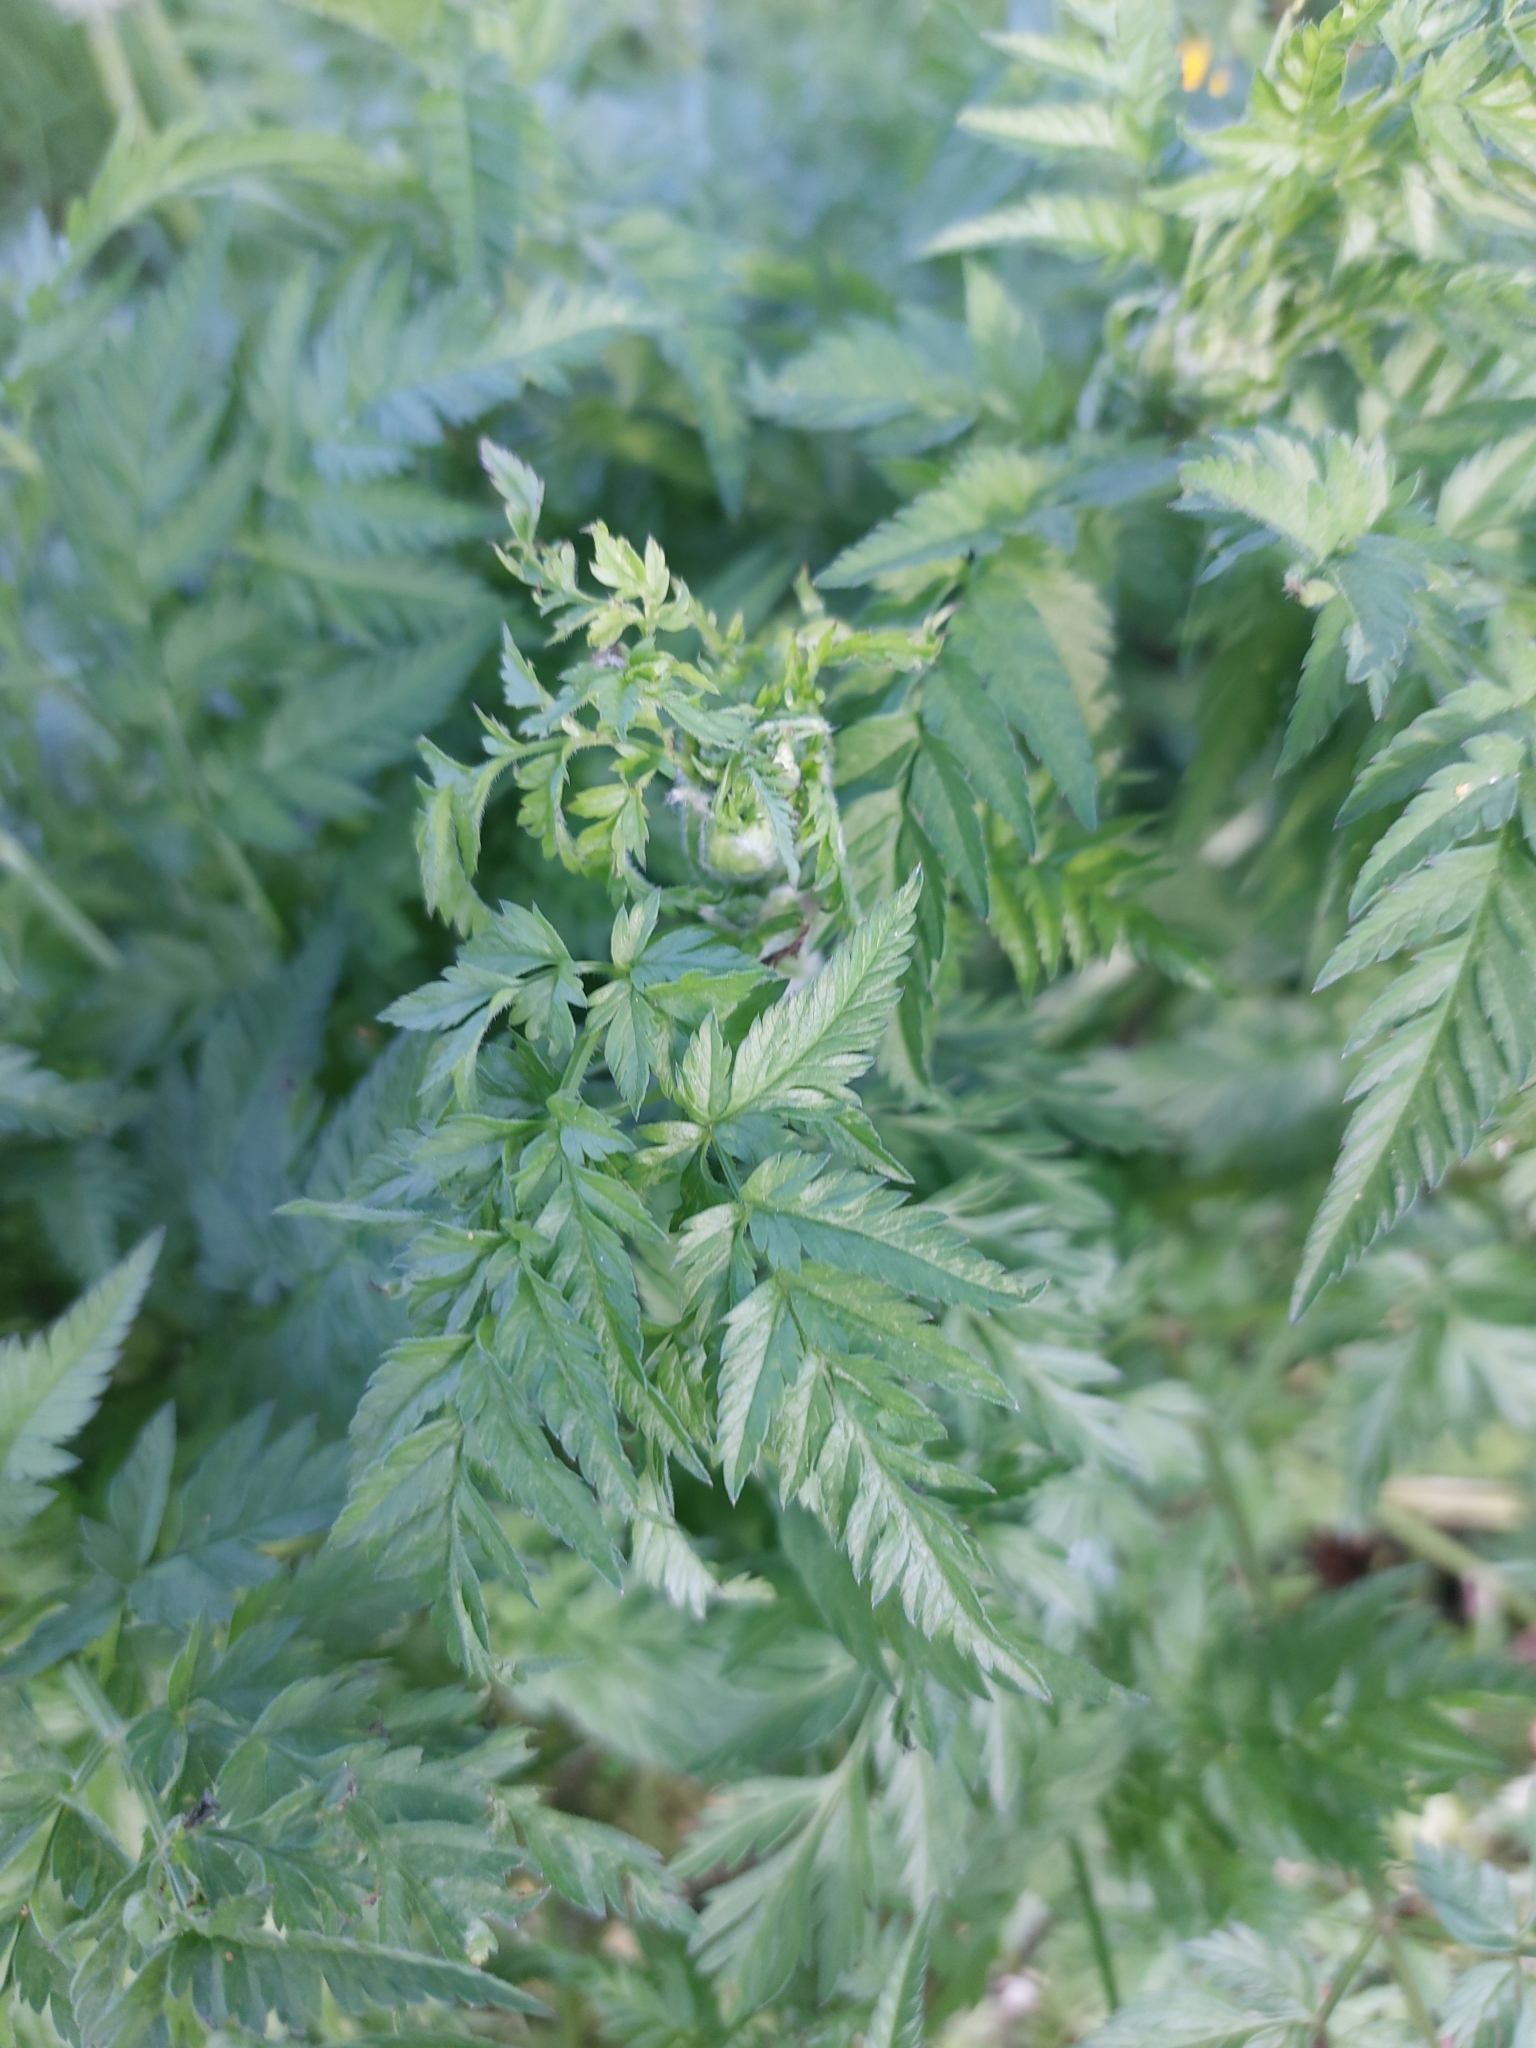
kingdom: Plantae
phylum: Tracheophyta
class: Magnoliopsida
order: Apiales
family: Apiaceae
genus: Anthriscus
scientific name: Anthriscus sylvestris
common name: Cow parsley
